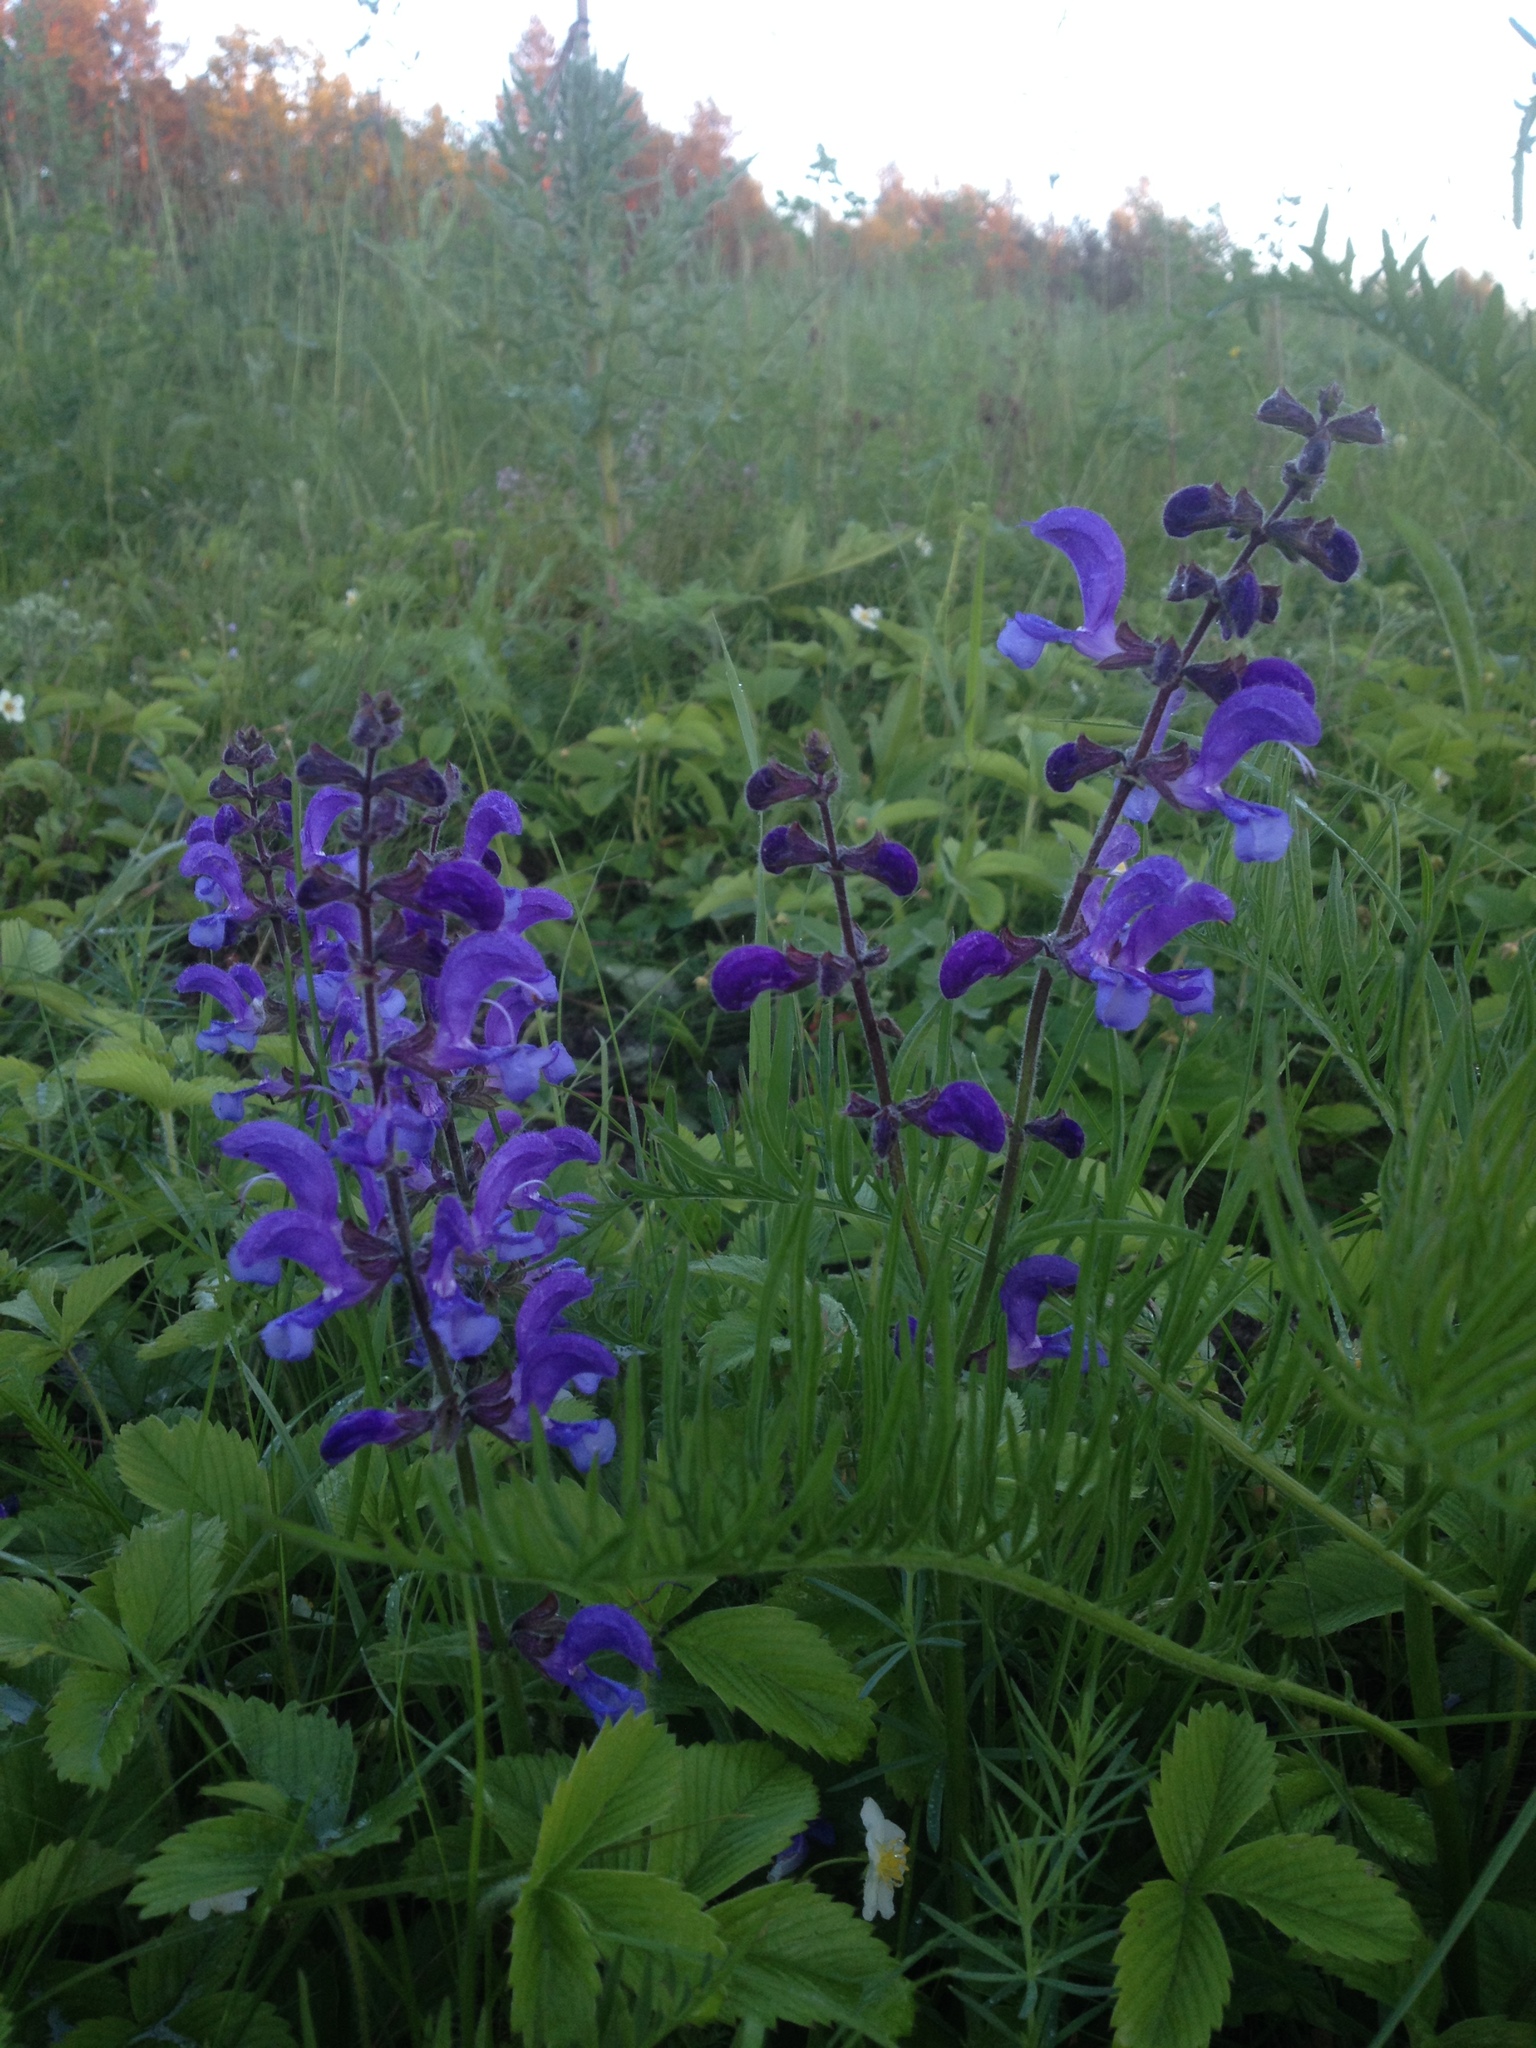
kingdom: Plantae
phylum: Tracheophyta
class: Magnoliopsida
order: Lamiales
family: Lamiaceae
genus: Salvia
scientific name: Salvia pratensis
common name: Meadow sage
